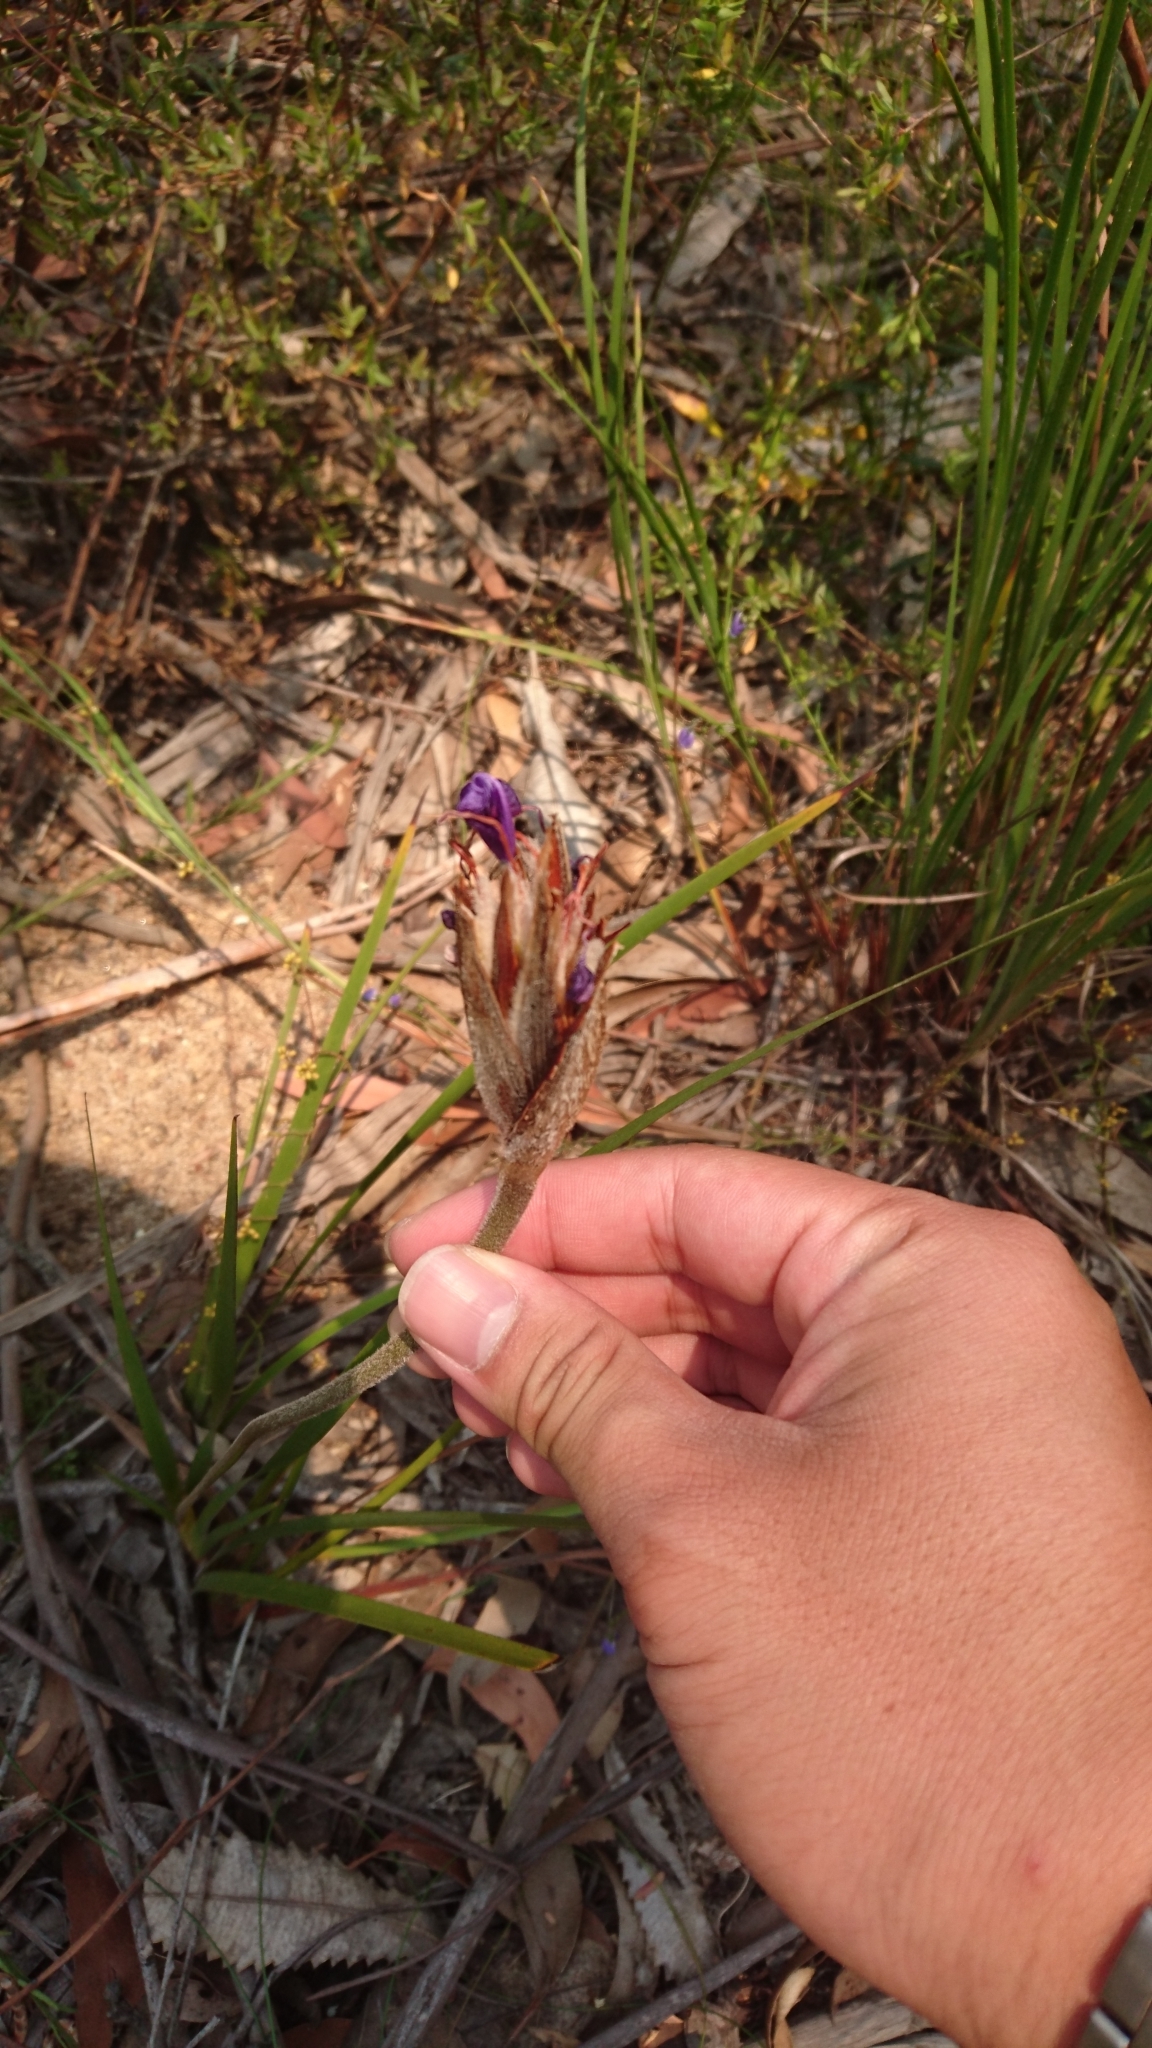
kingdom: Plantae
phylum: Tracheophyta
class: Liliopsida
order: Asparagales
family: Iridaceae
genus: Patersonia
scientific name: Patersonia sericea
